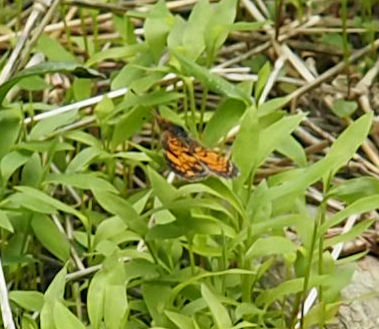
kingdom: Animalia
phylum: Arthropoda
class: Insecta
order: Lepidoptera
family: Nymphalidae
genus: Phyciodes
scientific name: Phyciodes tharos
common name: Pearl crescent
